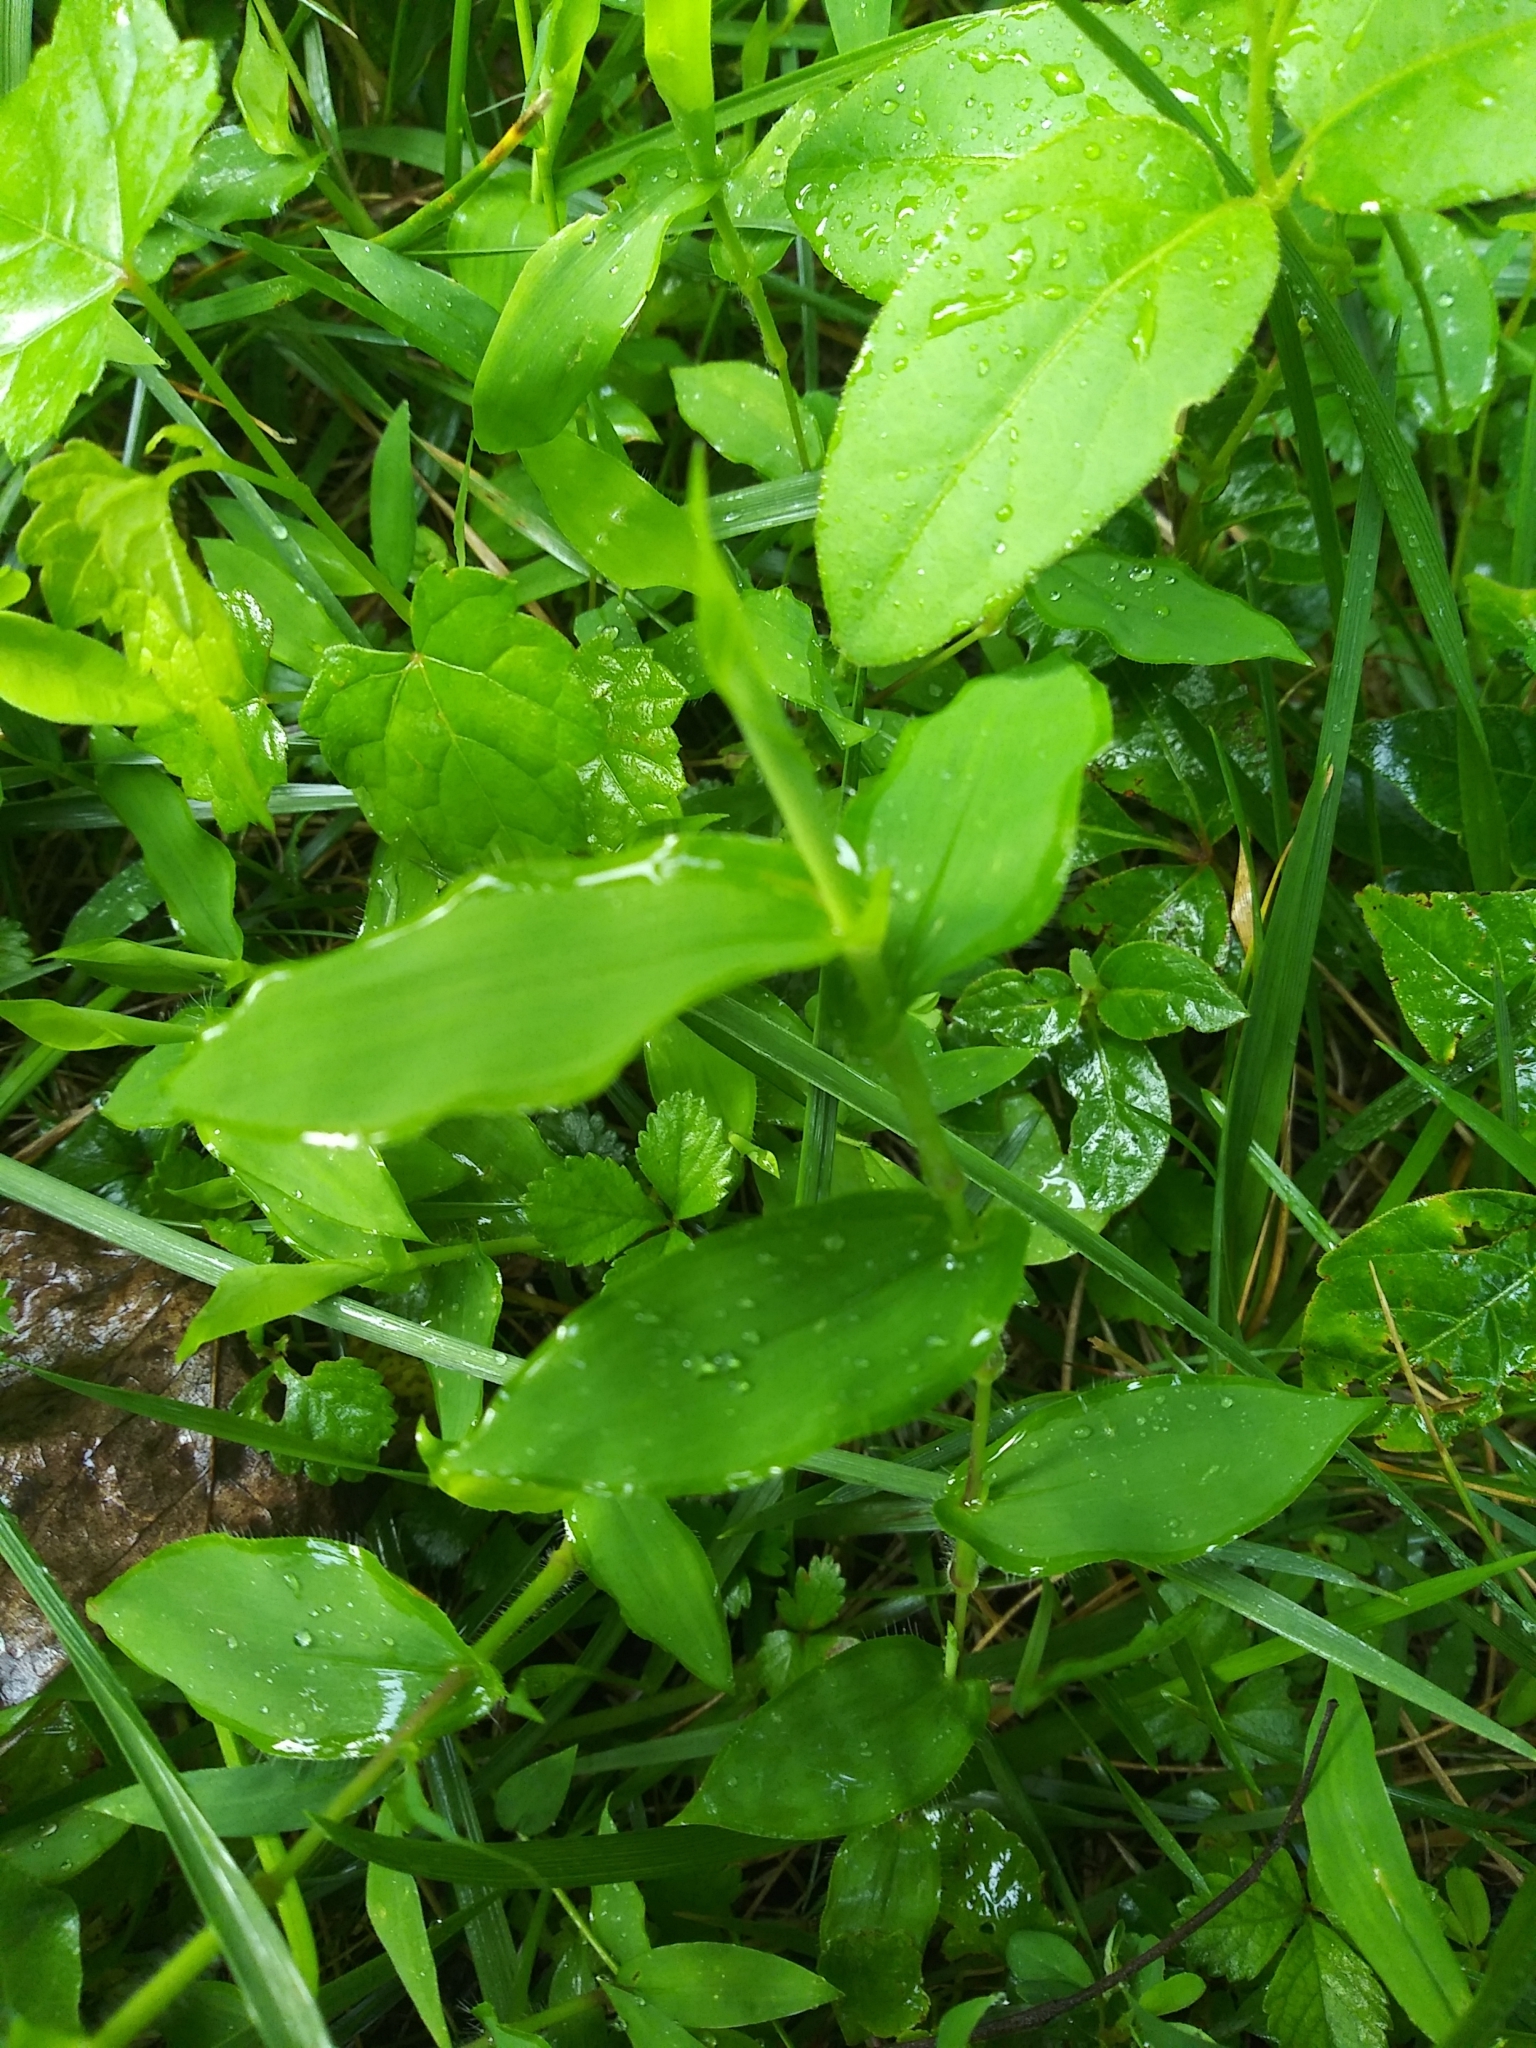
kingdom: Plantae
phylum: Tracheophyta
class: Liliopsida
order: Poales
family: Poaceae
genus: Arthraxon
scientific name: Arthraxon hispidus
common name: Small carpgrass
